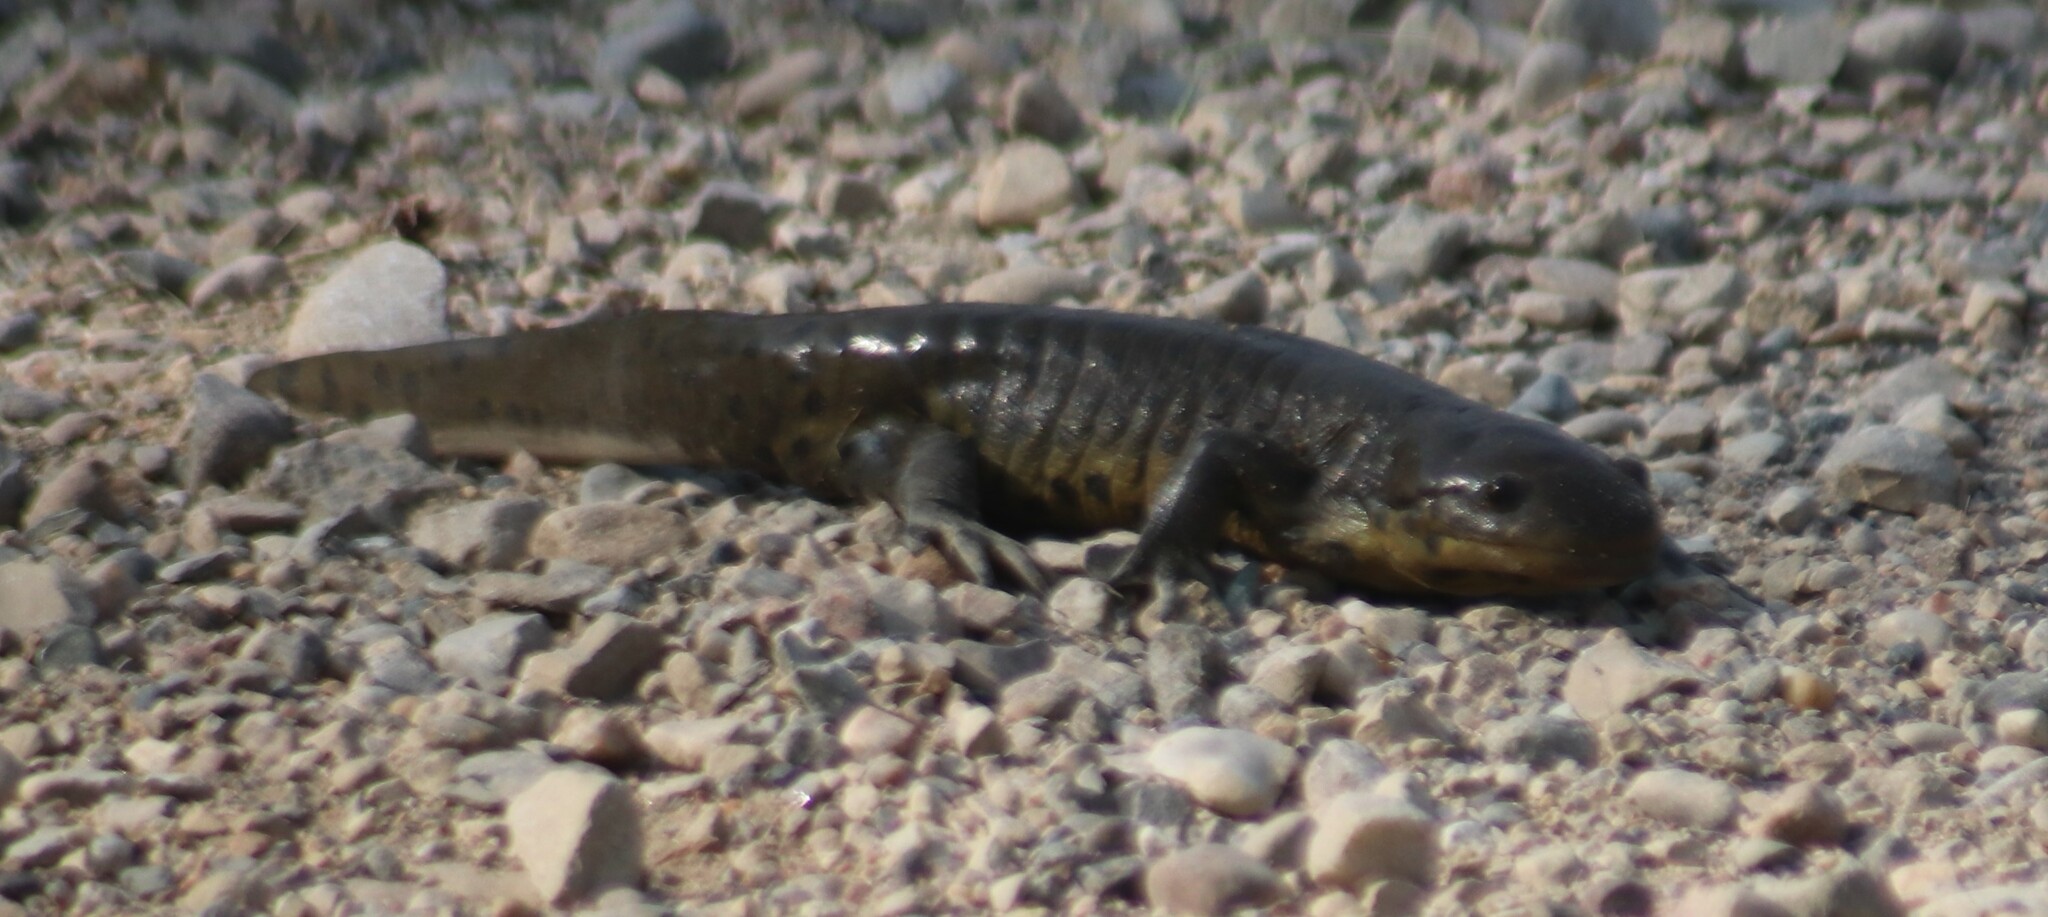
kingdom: Animalia
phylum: Chordata
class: Amphibia
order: Caudata
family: Ambystomatidae
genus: Ambystoma
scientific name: Ambystoma mavortium
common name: Western tiger salamander
